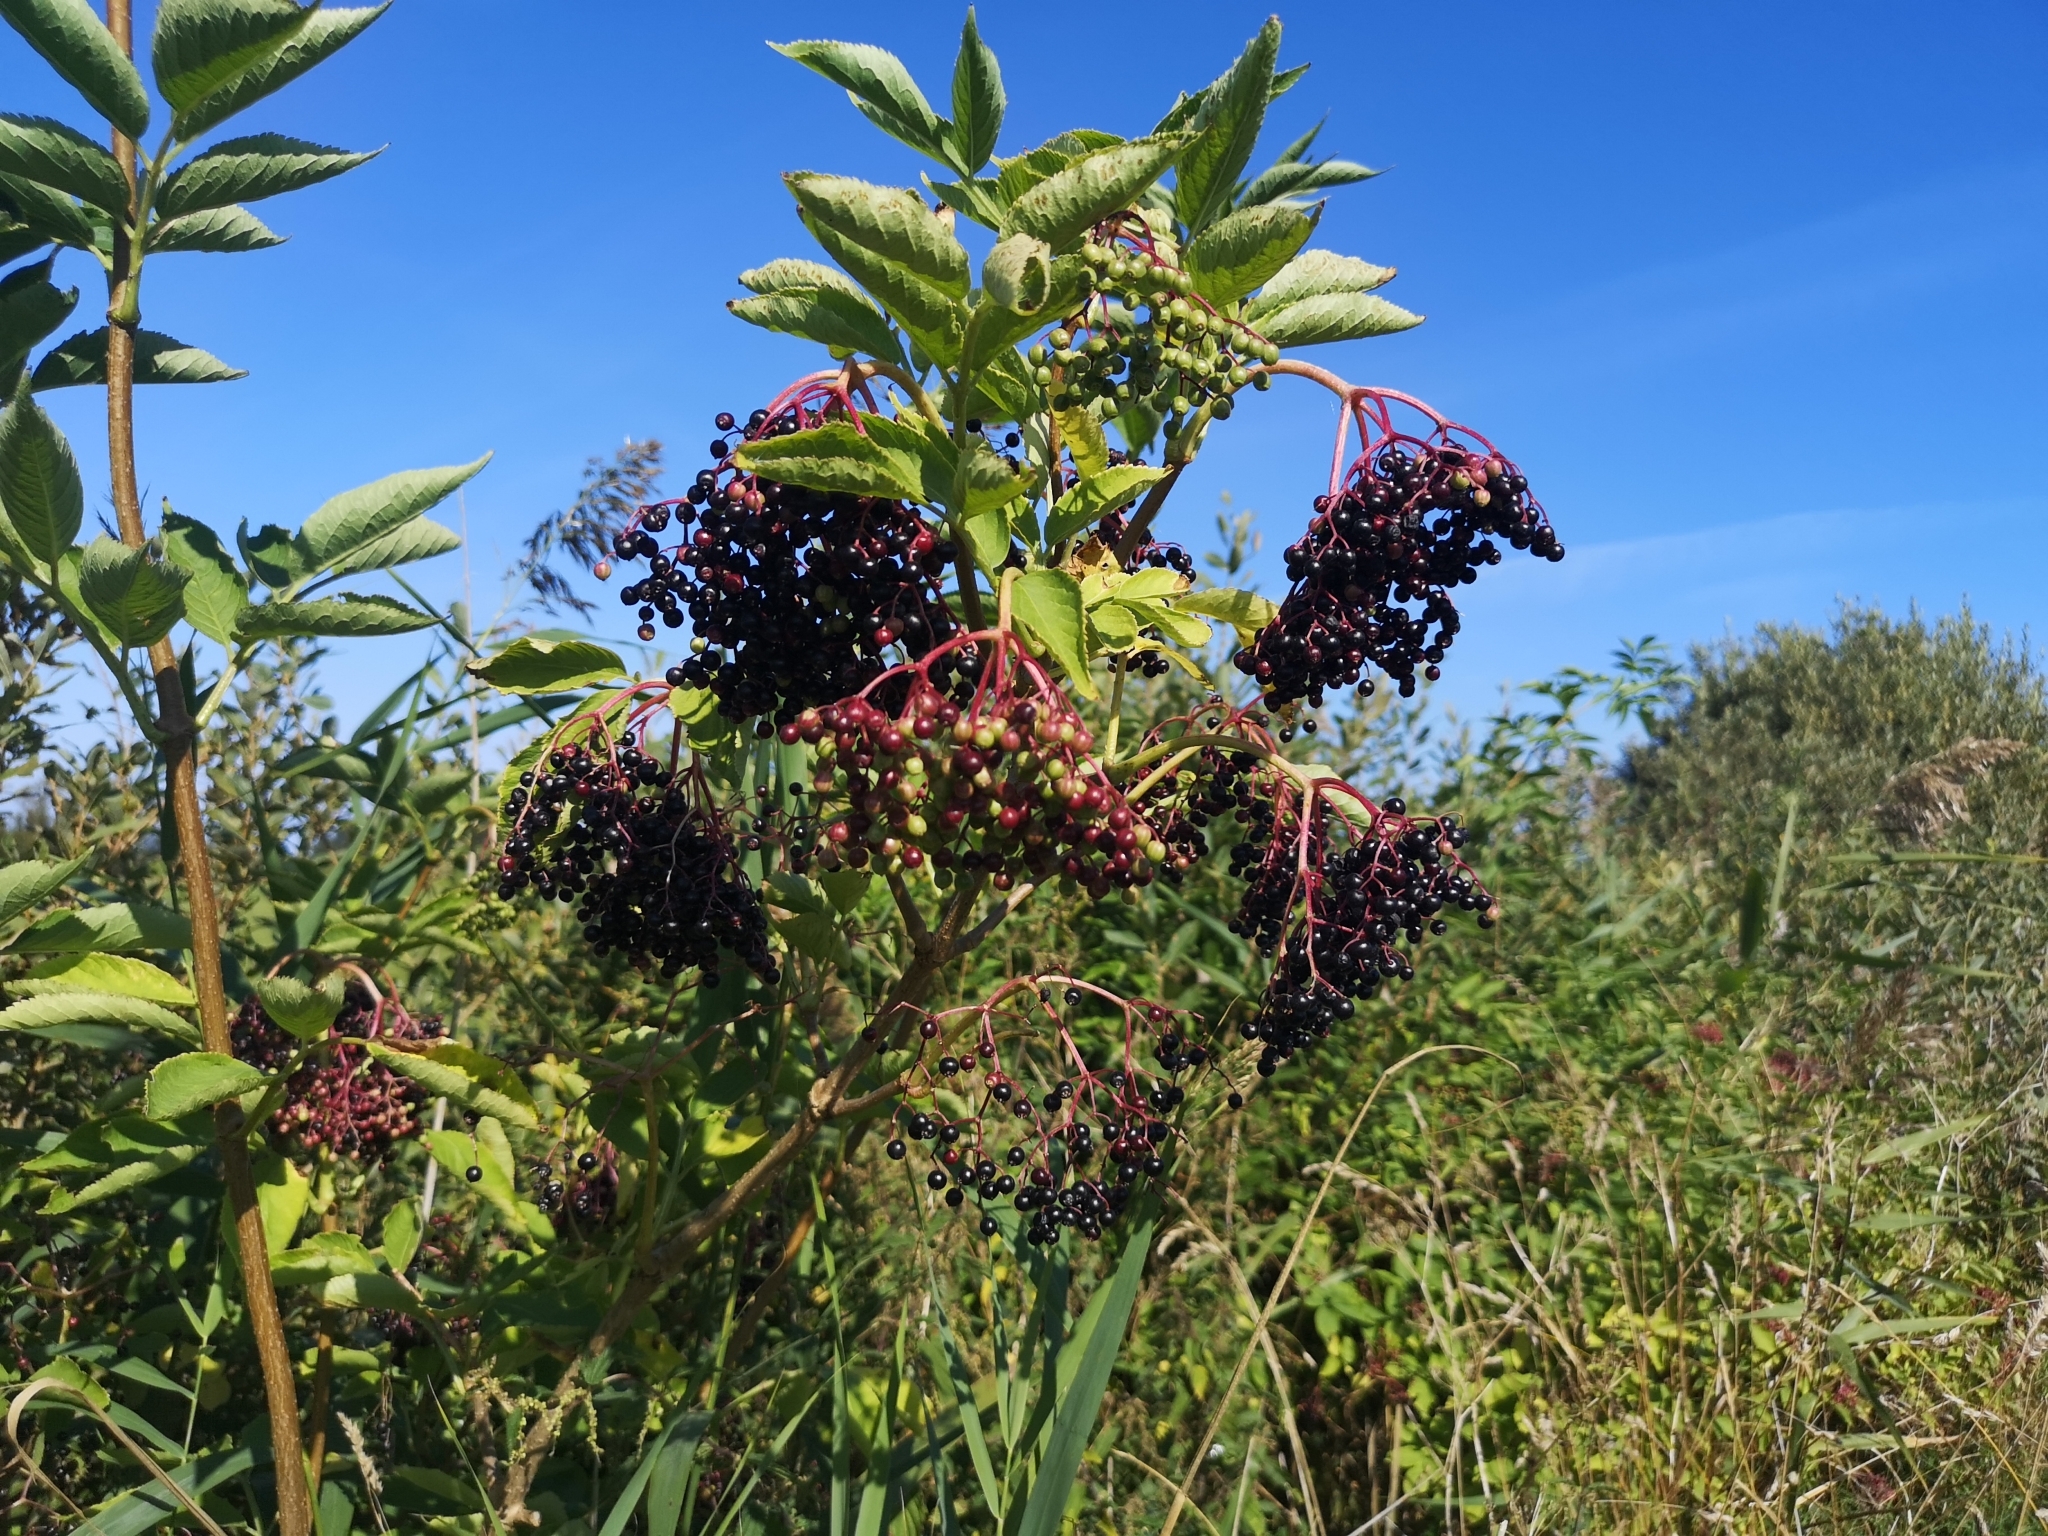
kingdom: Plantae
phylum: Tracheophyta
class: Magnoliopsida
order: Dipsacales
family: Viburnaceae
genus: Sambucus
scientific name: Sambucus nigra
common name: Elder
